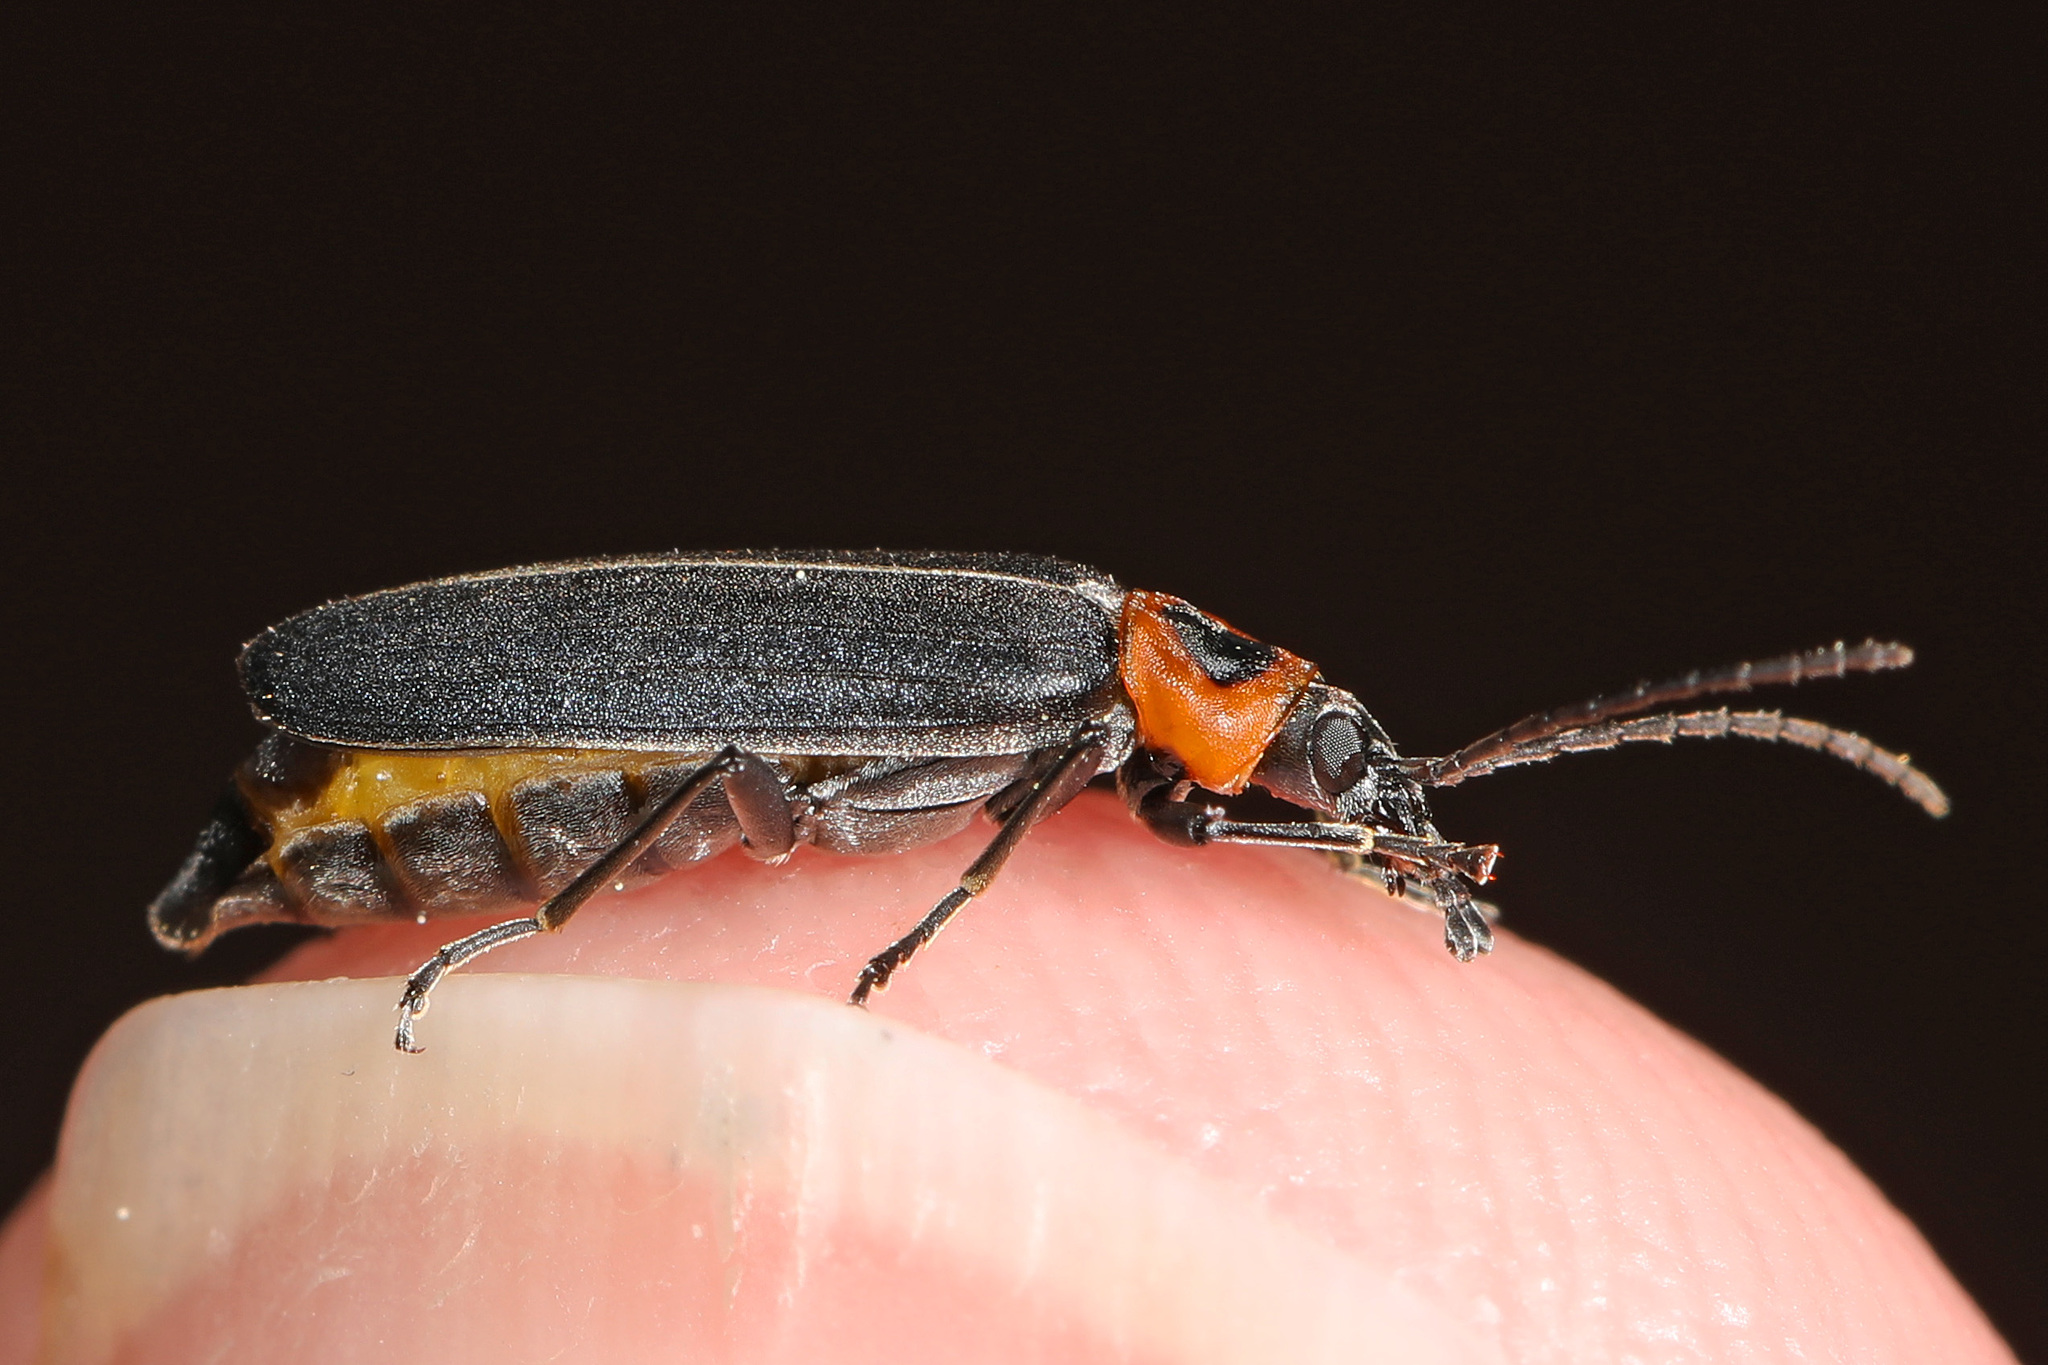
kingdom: Animalia
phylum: Arthropoda
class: Insecta
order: Coleoptera
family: Oedemeridae
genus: Ischnomera
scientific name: Ischnomera
